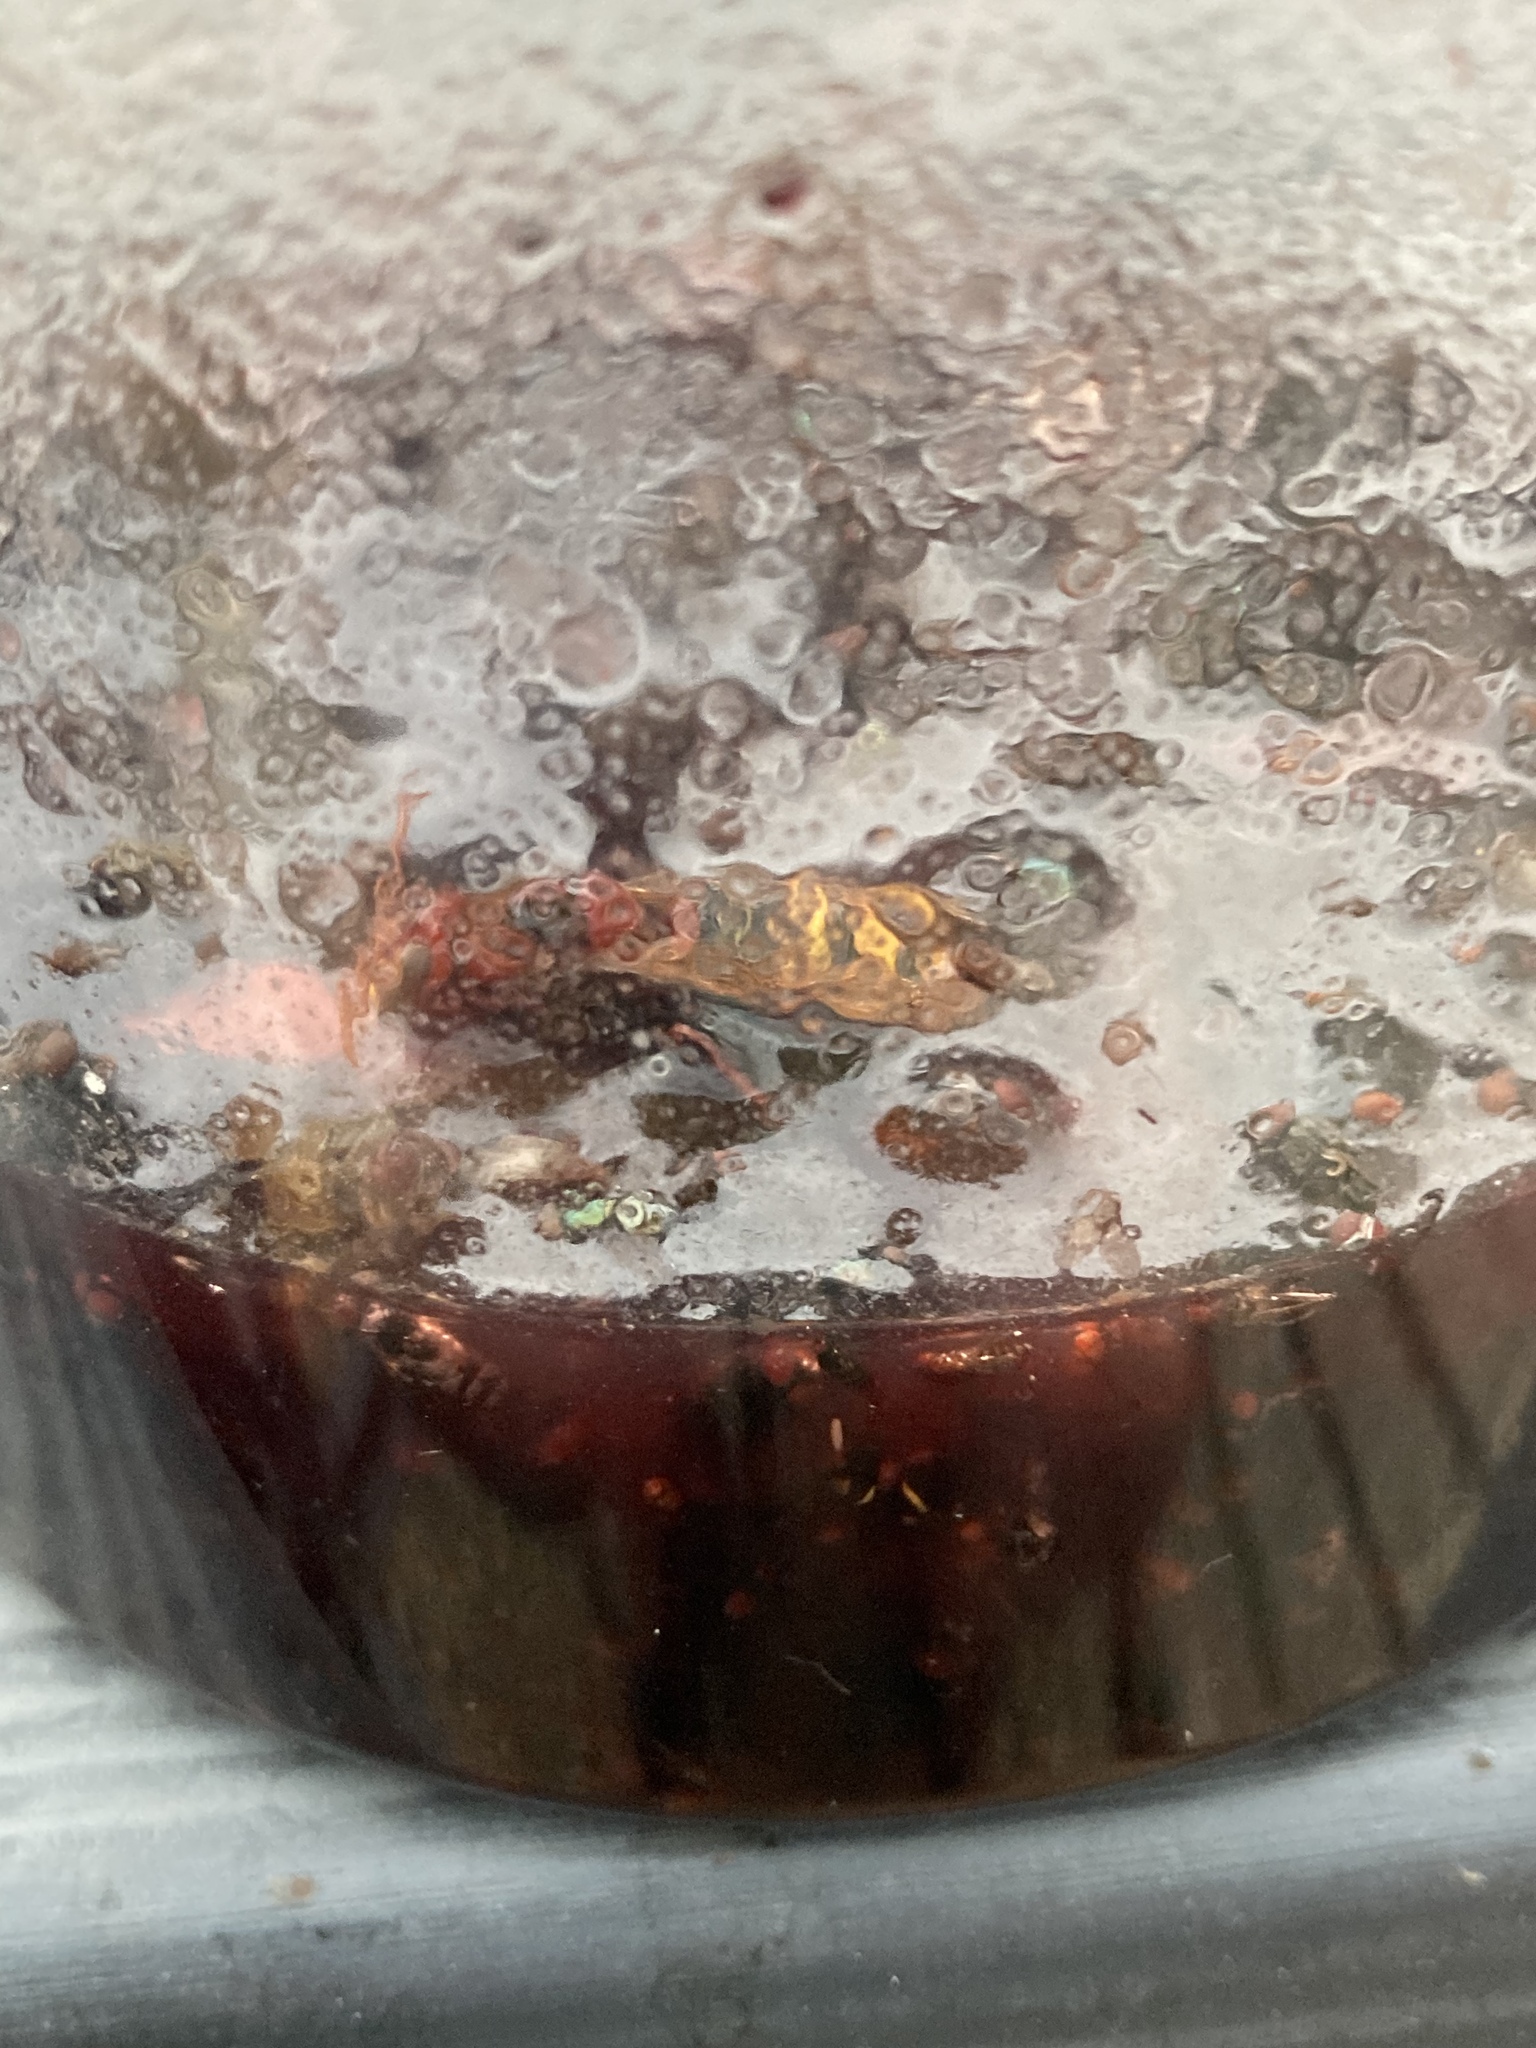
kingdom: Animalia
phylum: Arthropoda
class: Insecta
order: Hymenoptera
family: Vespidae
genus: Vespa
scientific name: Vespa crabro
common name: Hornet
